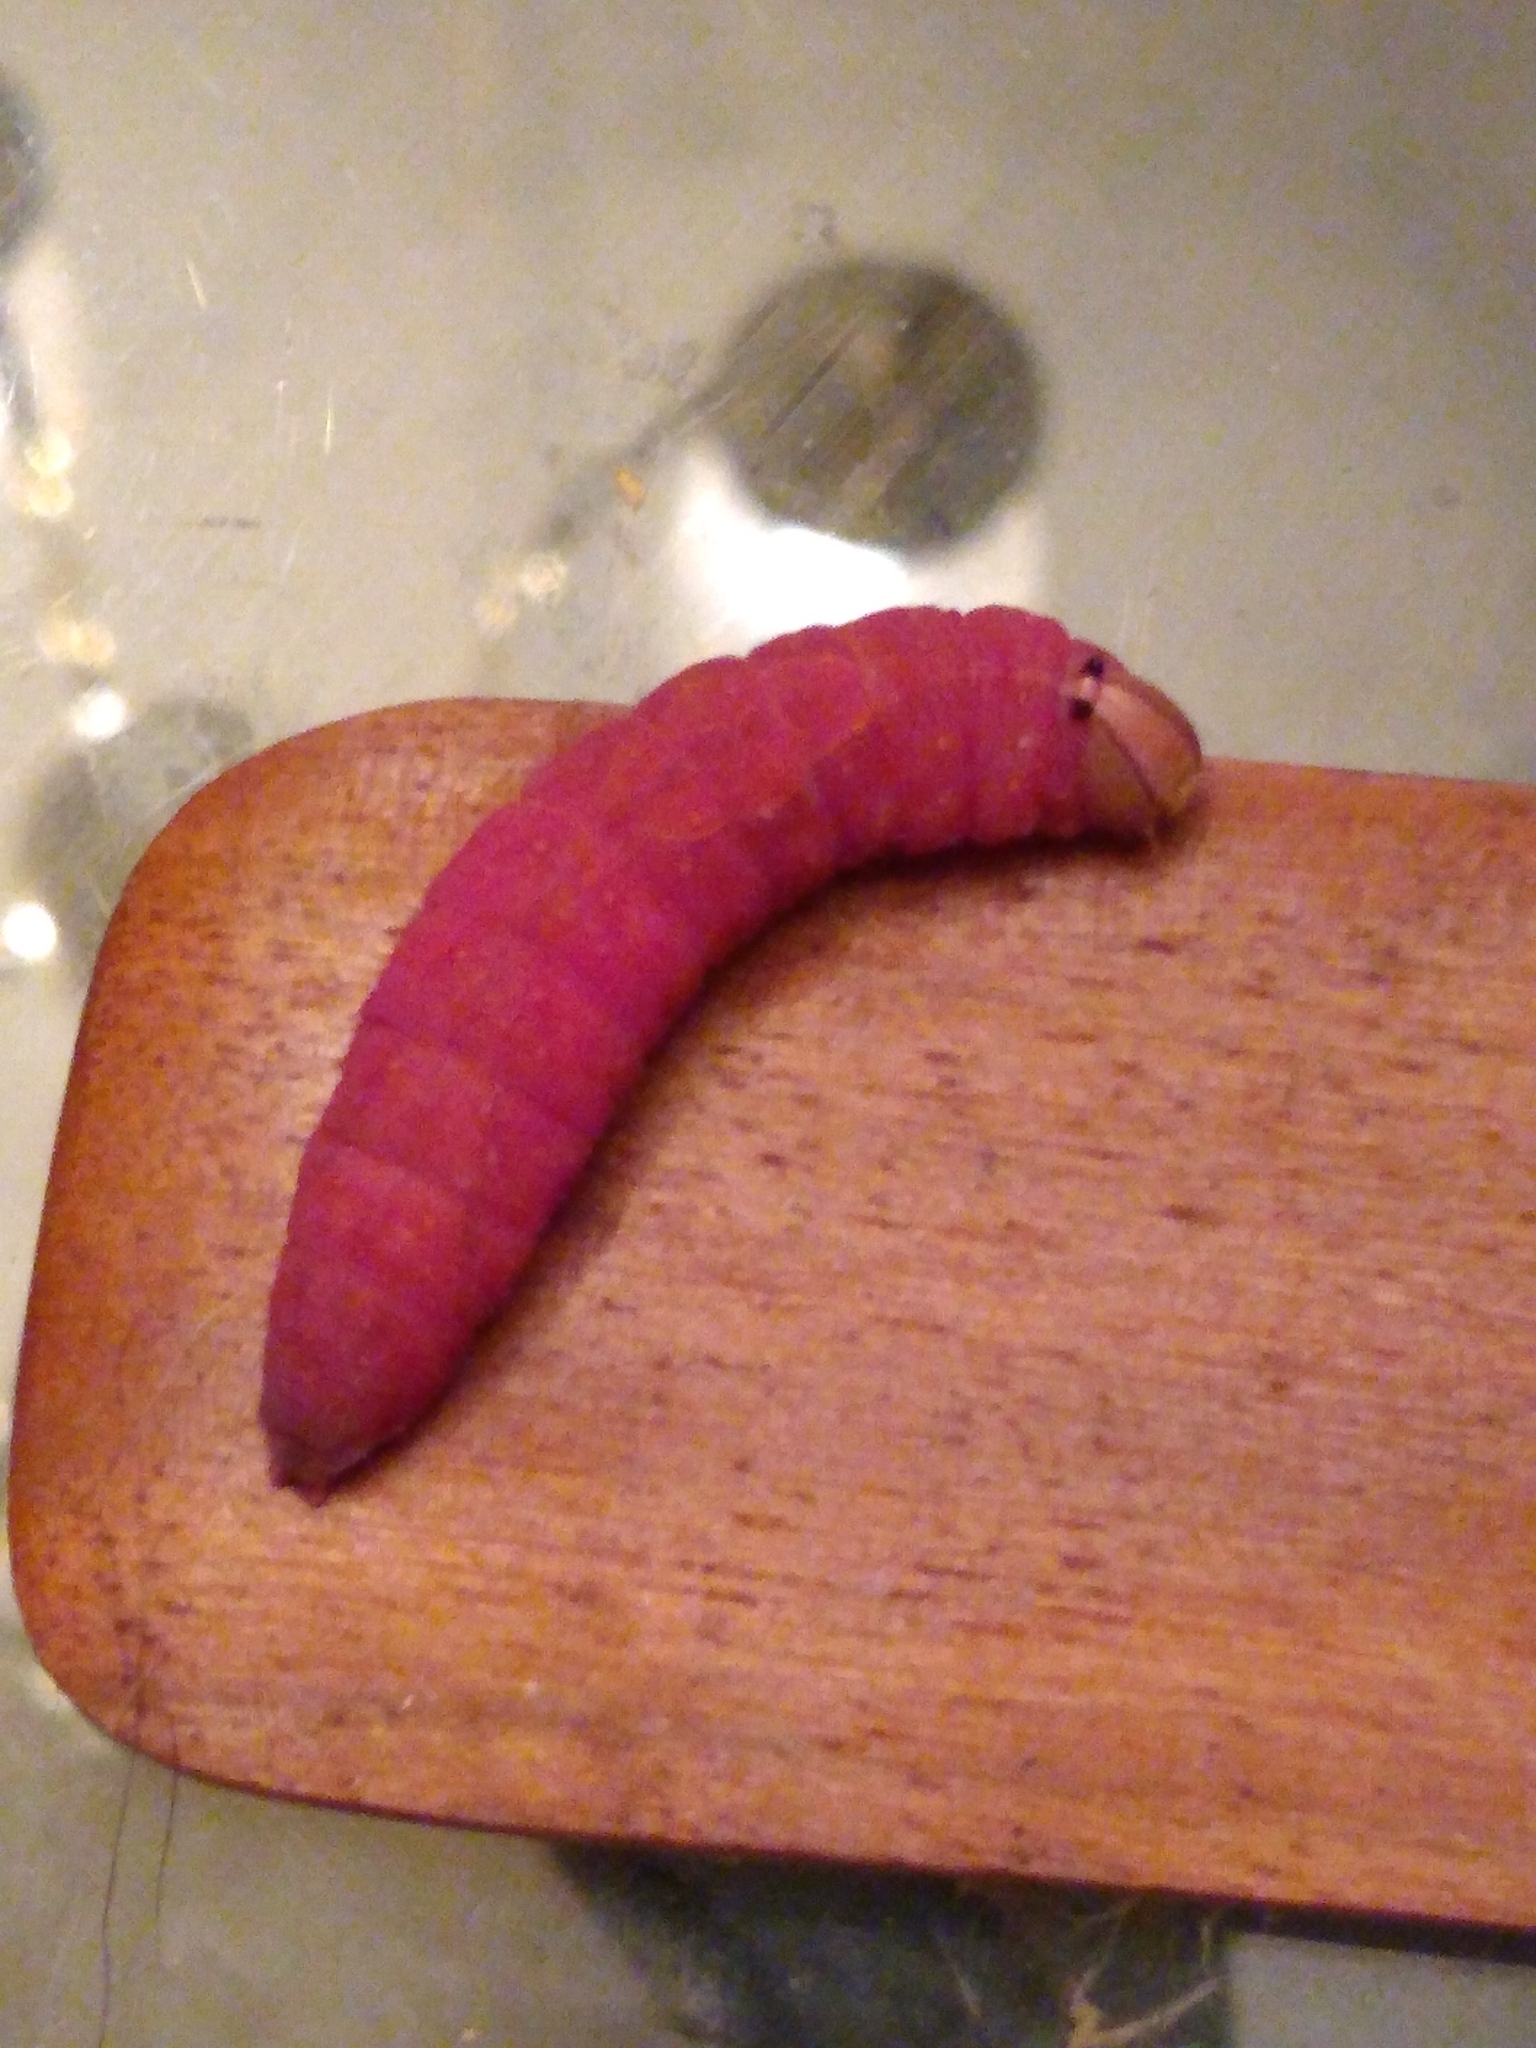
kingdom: Animalia
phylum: Arthropoda
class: Insecta
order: Lepidoptera
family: Notodontidae
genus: Heterocampa
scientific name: Heterocampa
